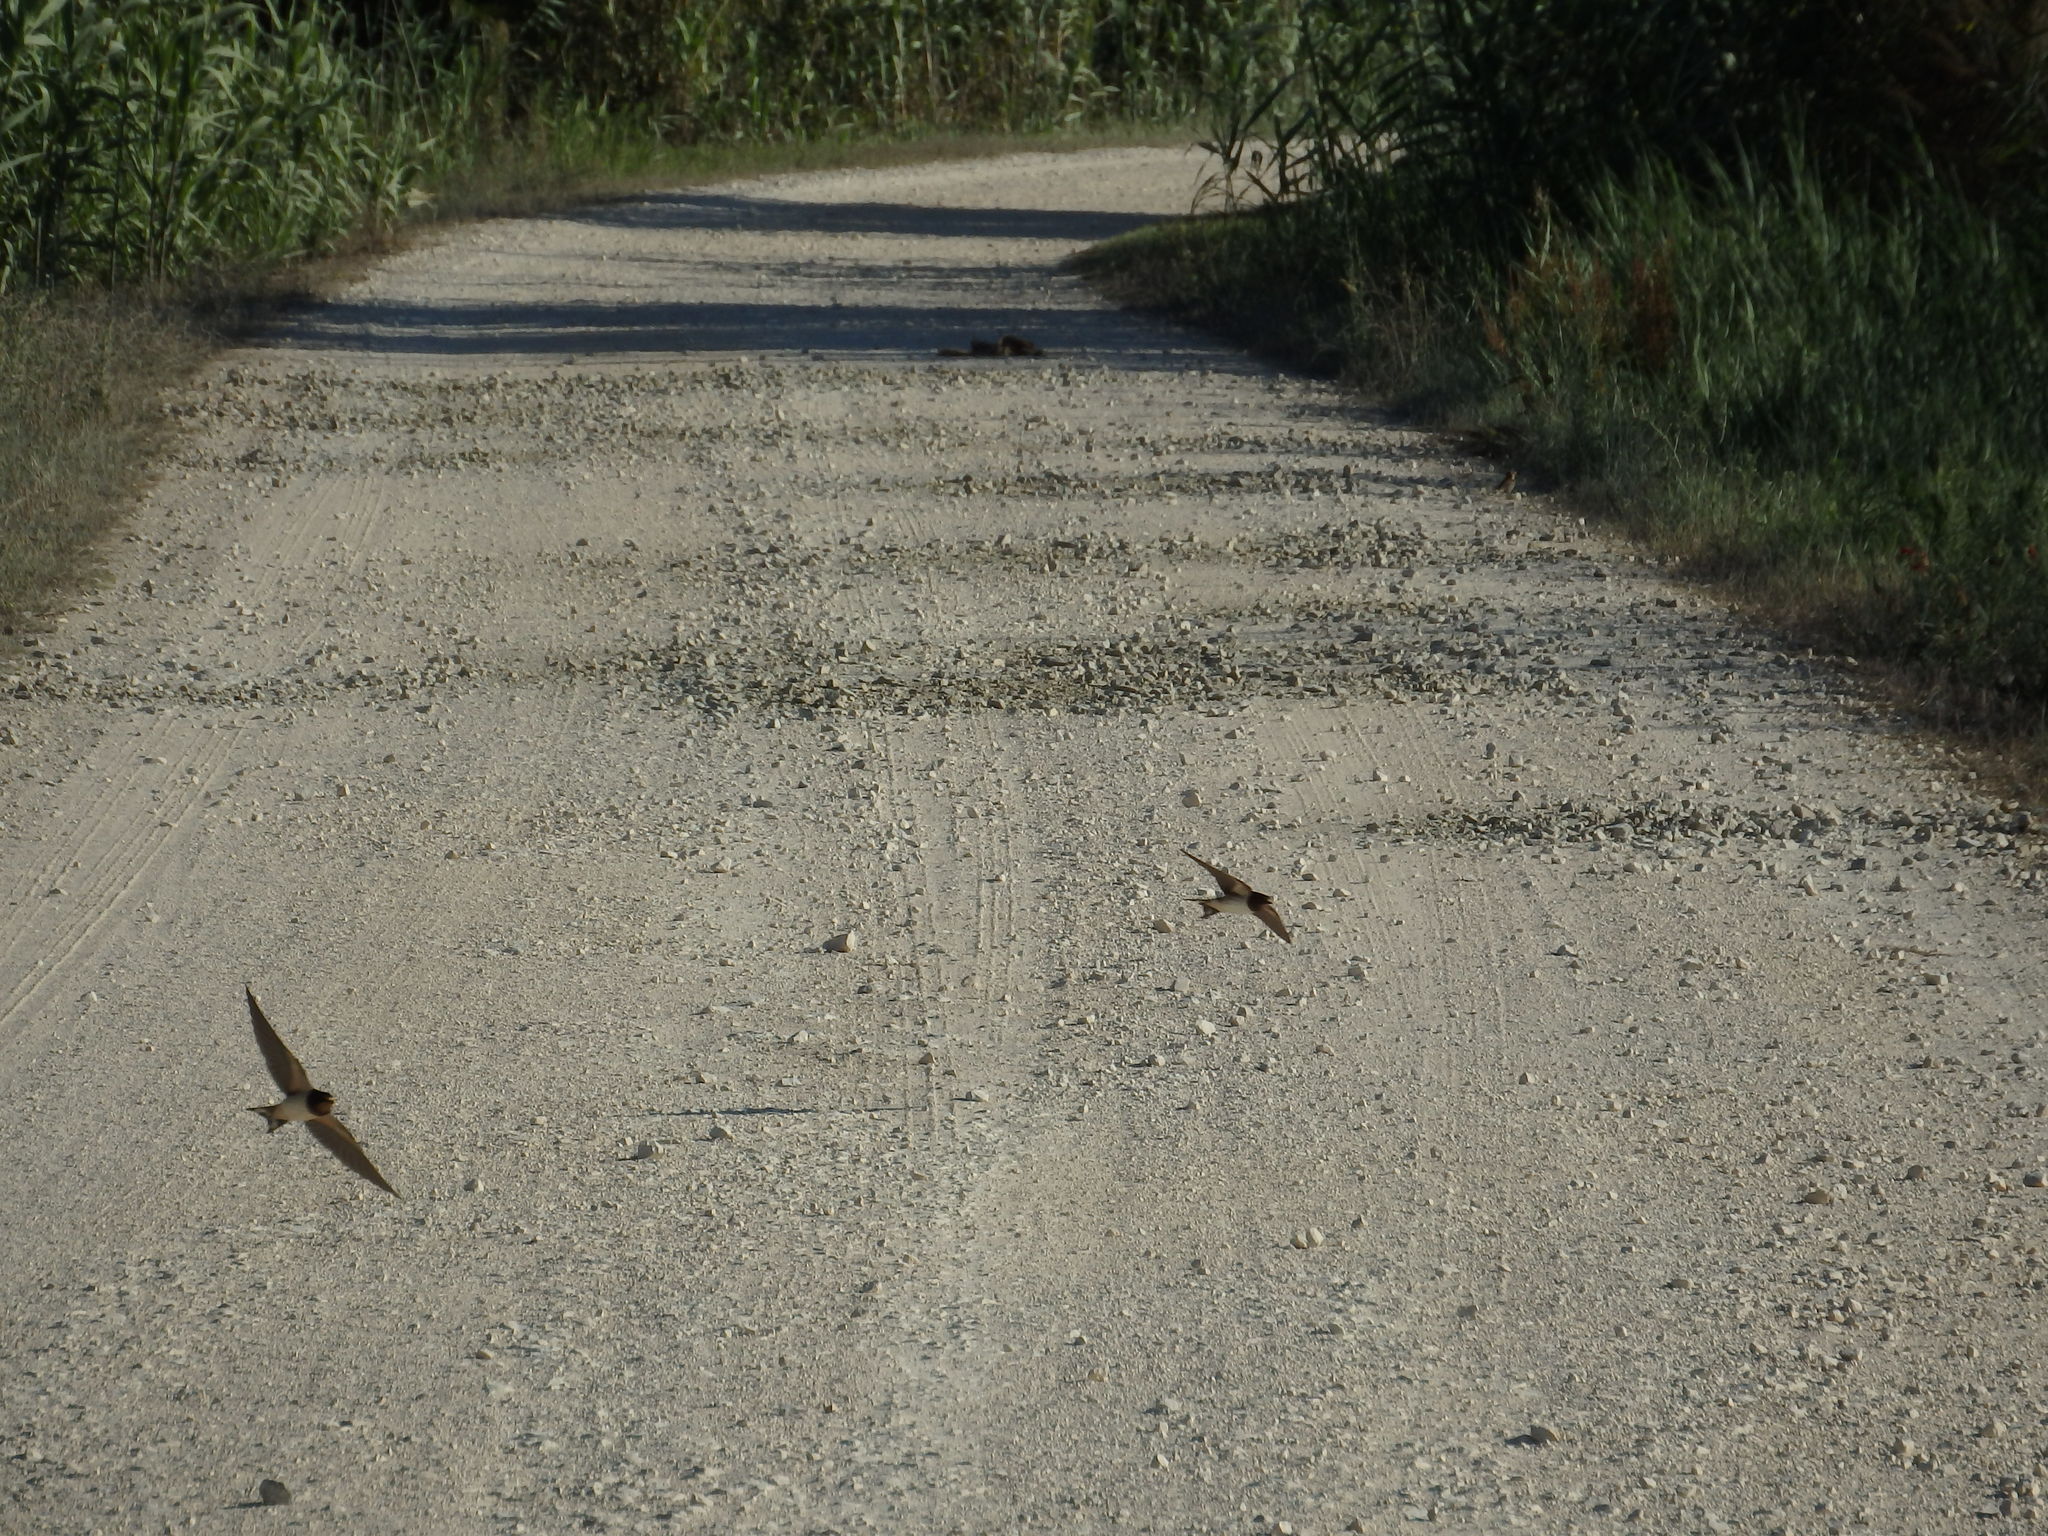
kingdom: Animalia
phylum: Chordata
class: Aves
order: Passeriformes
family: Hirundinidae
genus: Hirundo
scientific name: Hirundo rustica
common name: Barn swallow
